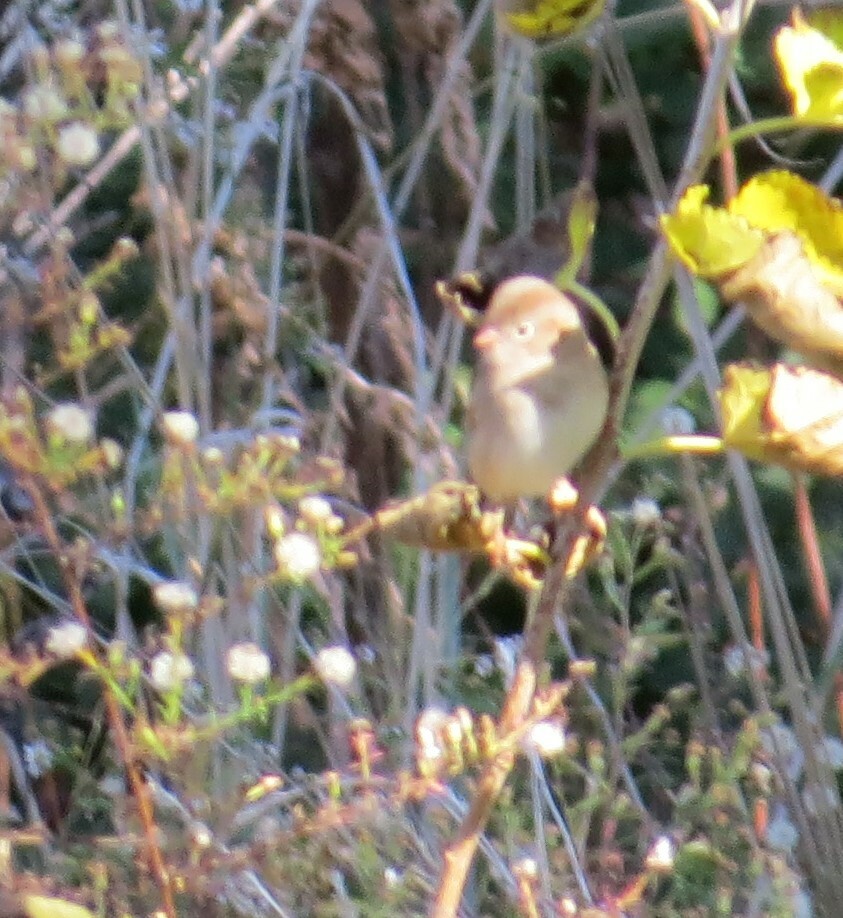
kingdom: Animalia
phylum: Chordata
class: Aves
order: Passeriformes
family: Passerellidae
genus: Spizella
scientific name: Spizella pusilla
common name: Field sparrow
